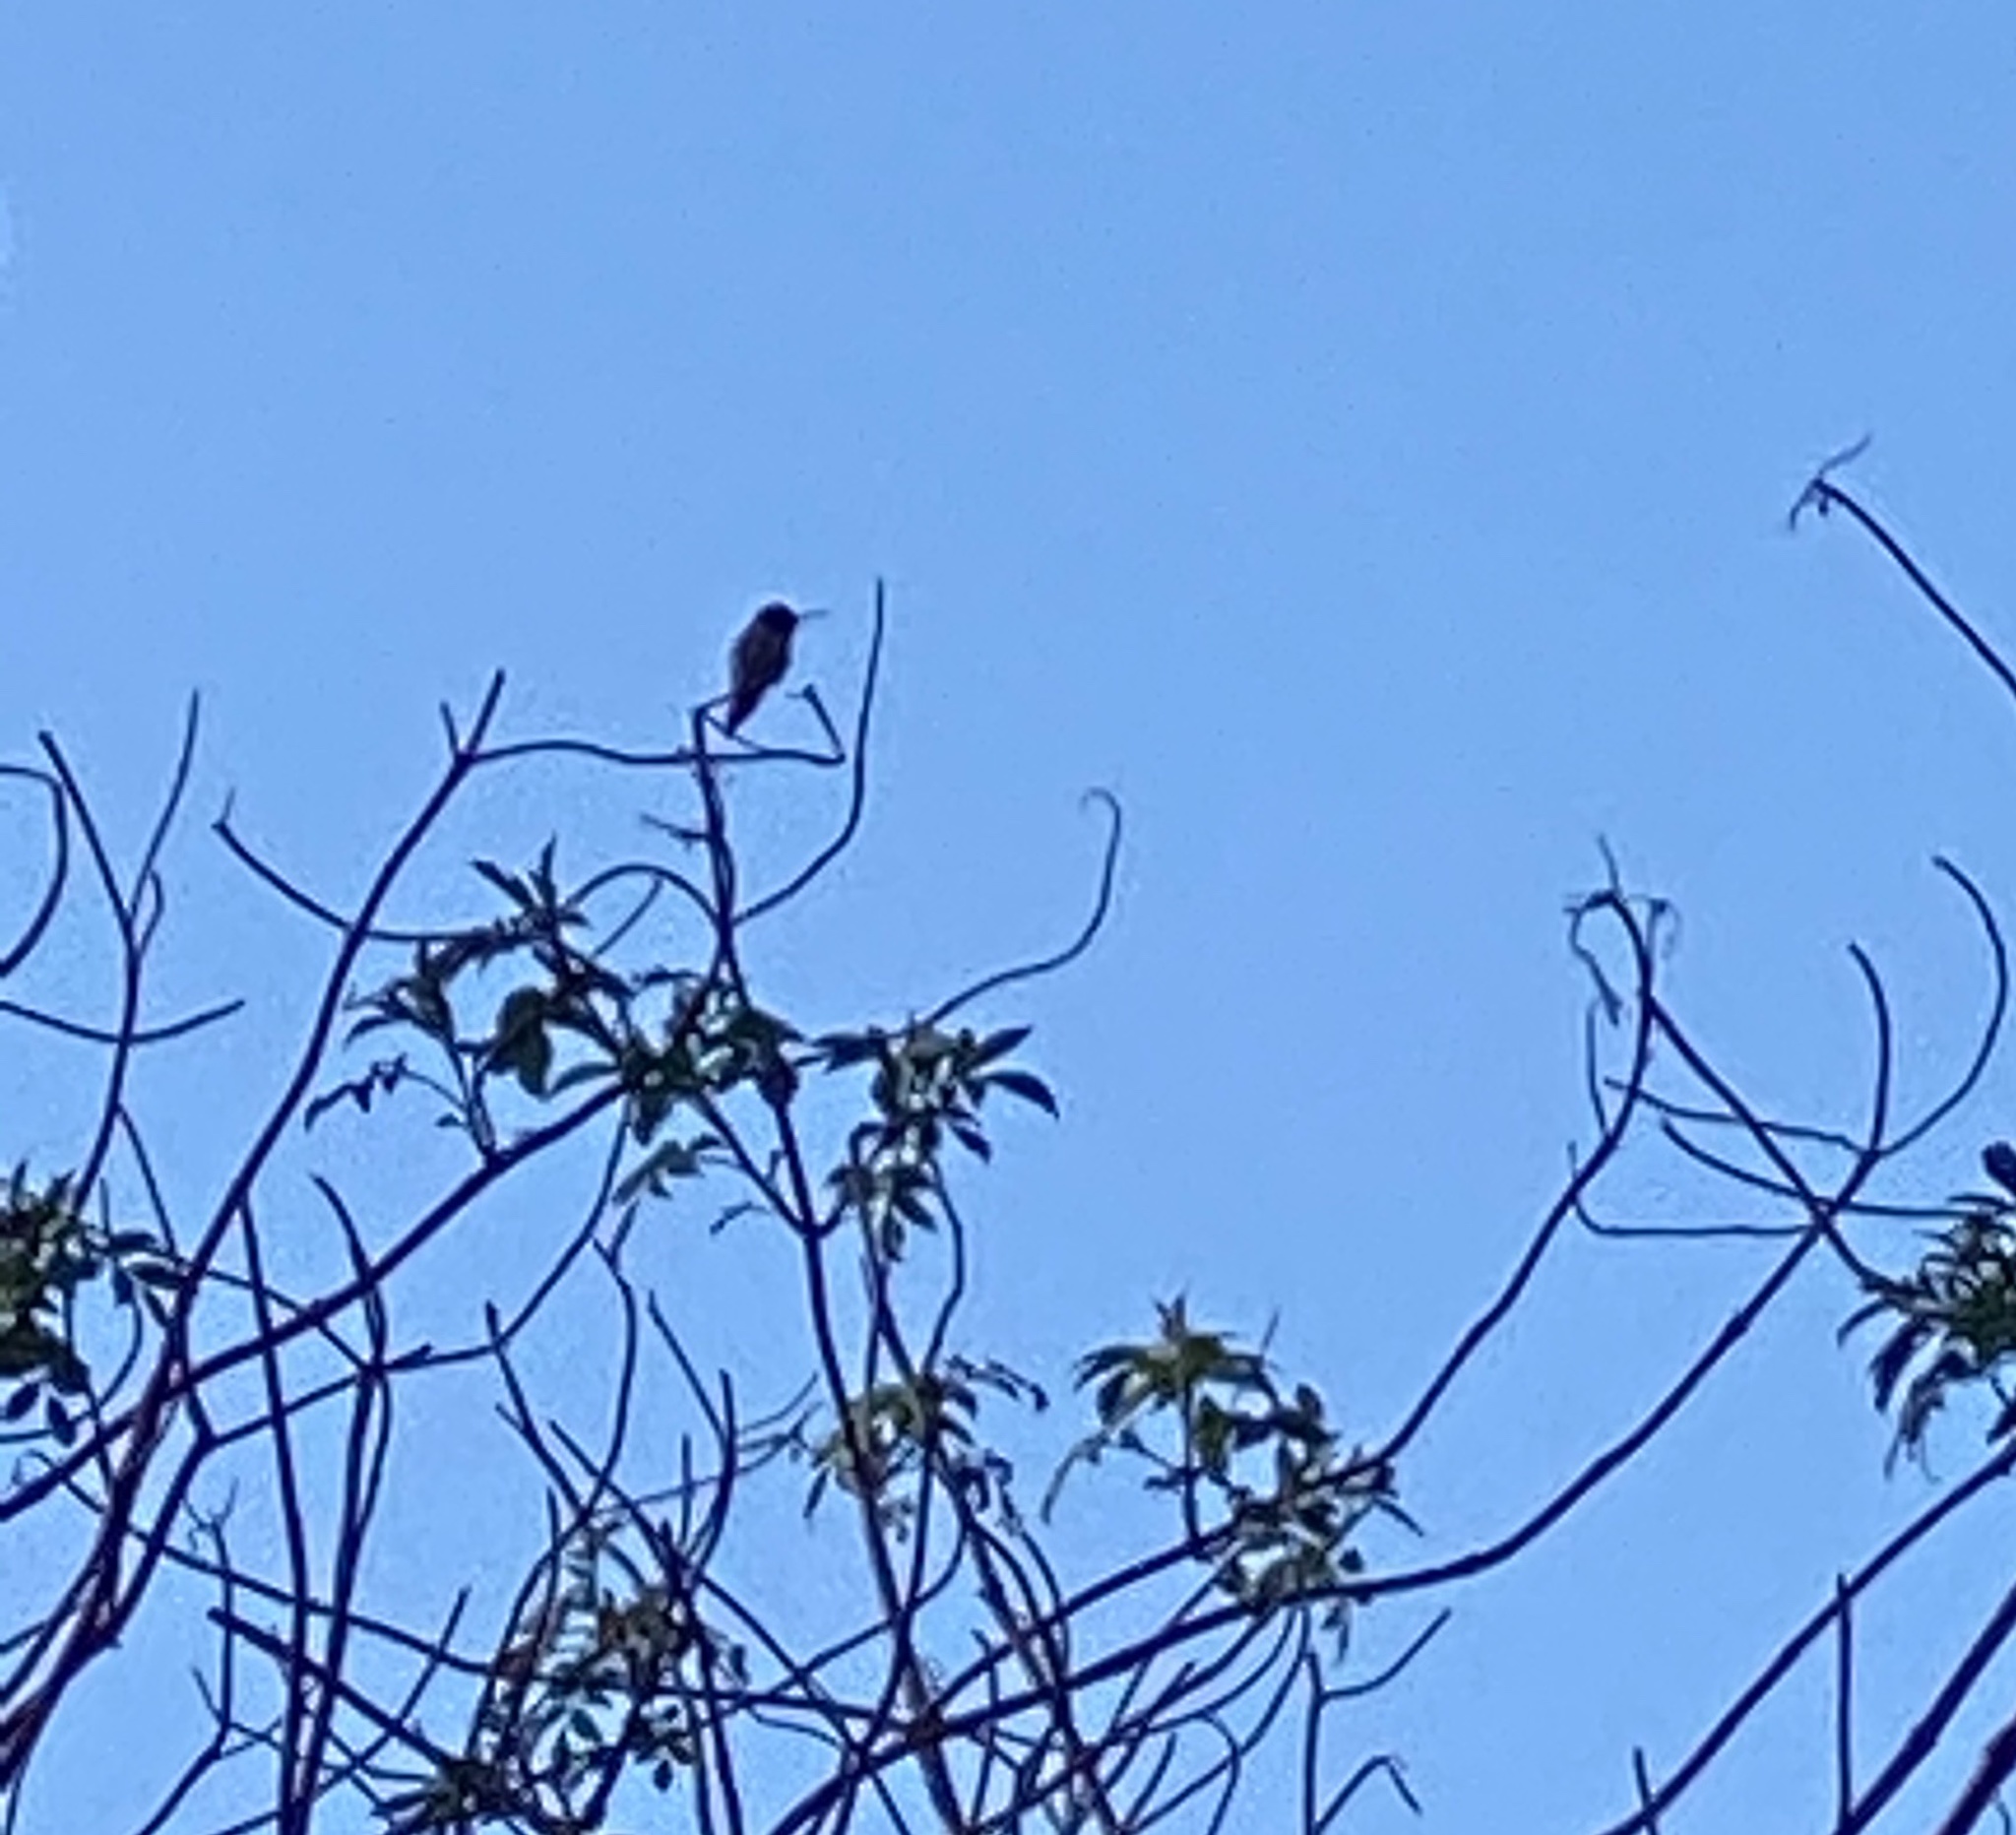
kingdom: Animalia
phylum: Chordata
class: Aves
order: Apodiformes
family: Trochilidae
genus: Calypte
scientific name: Calypte anna
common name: Anna's hummingbird
